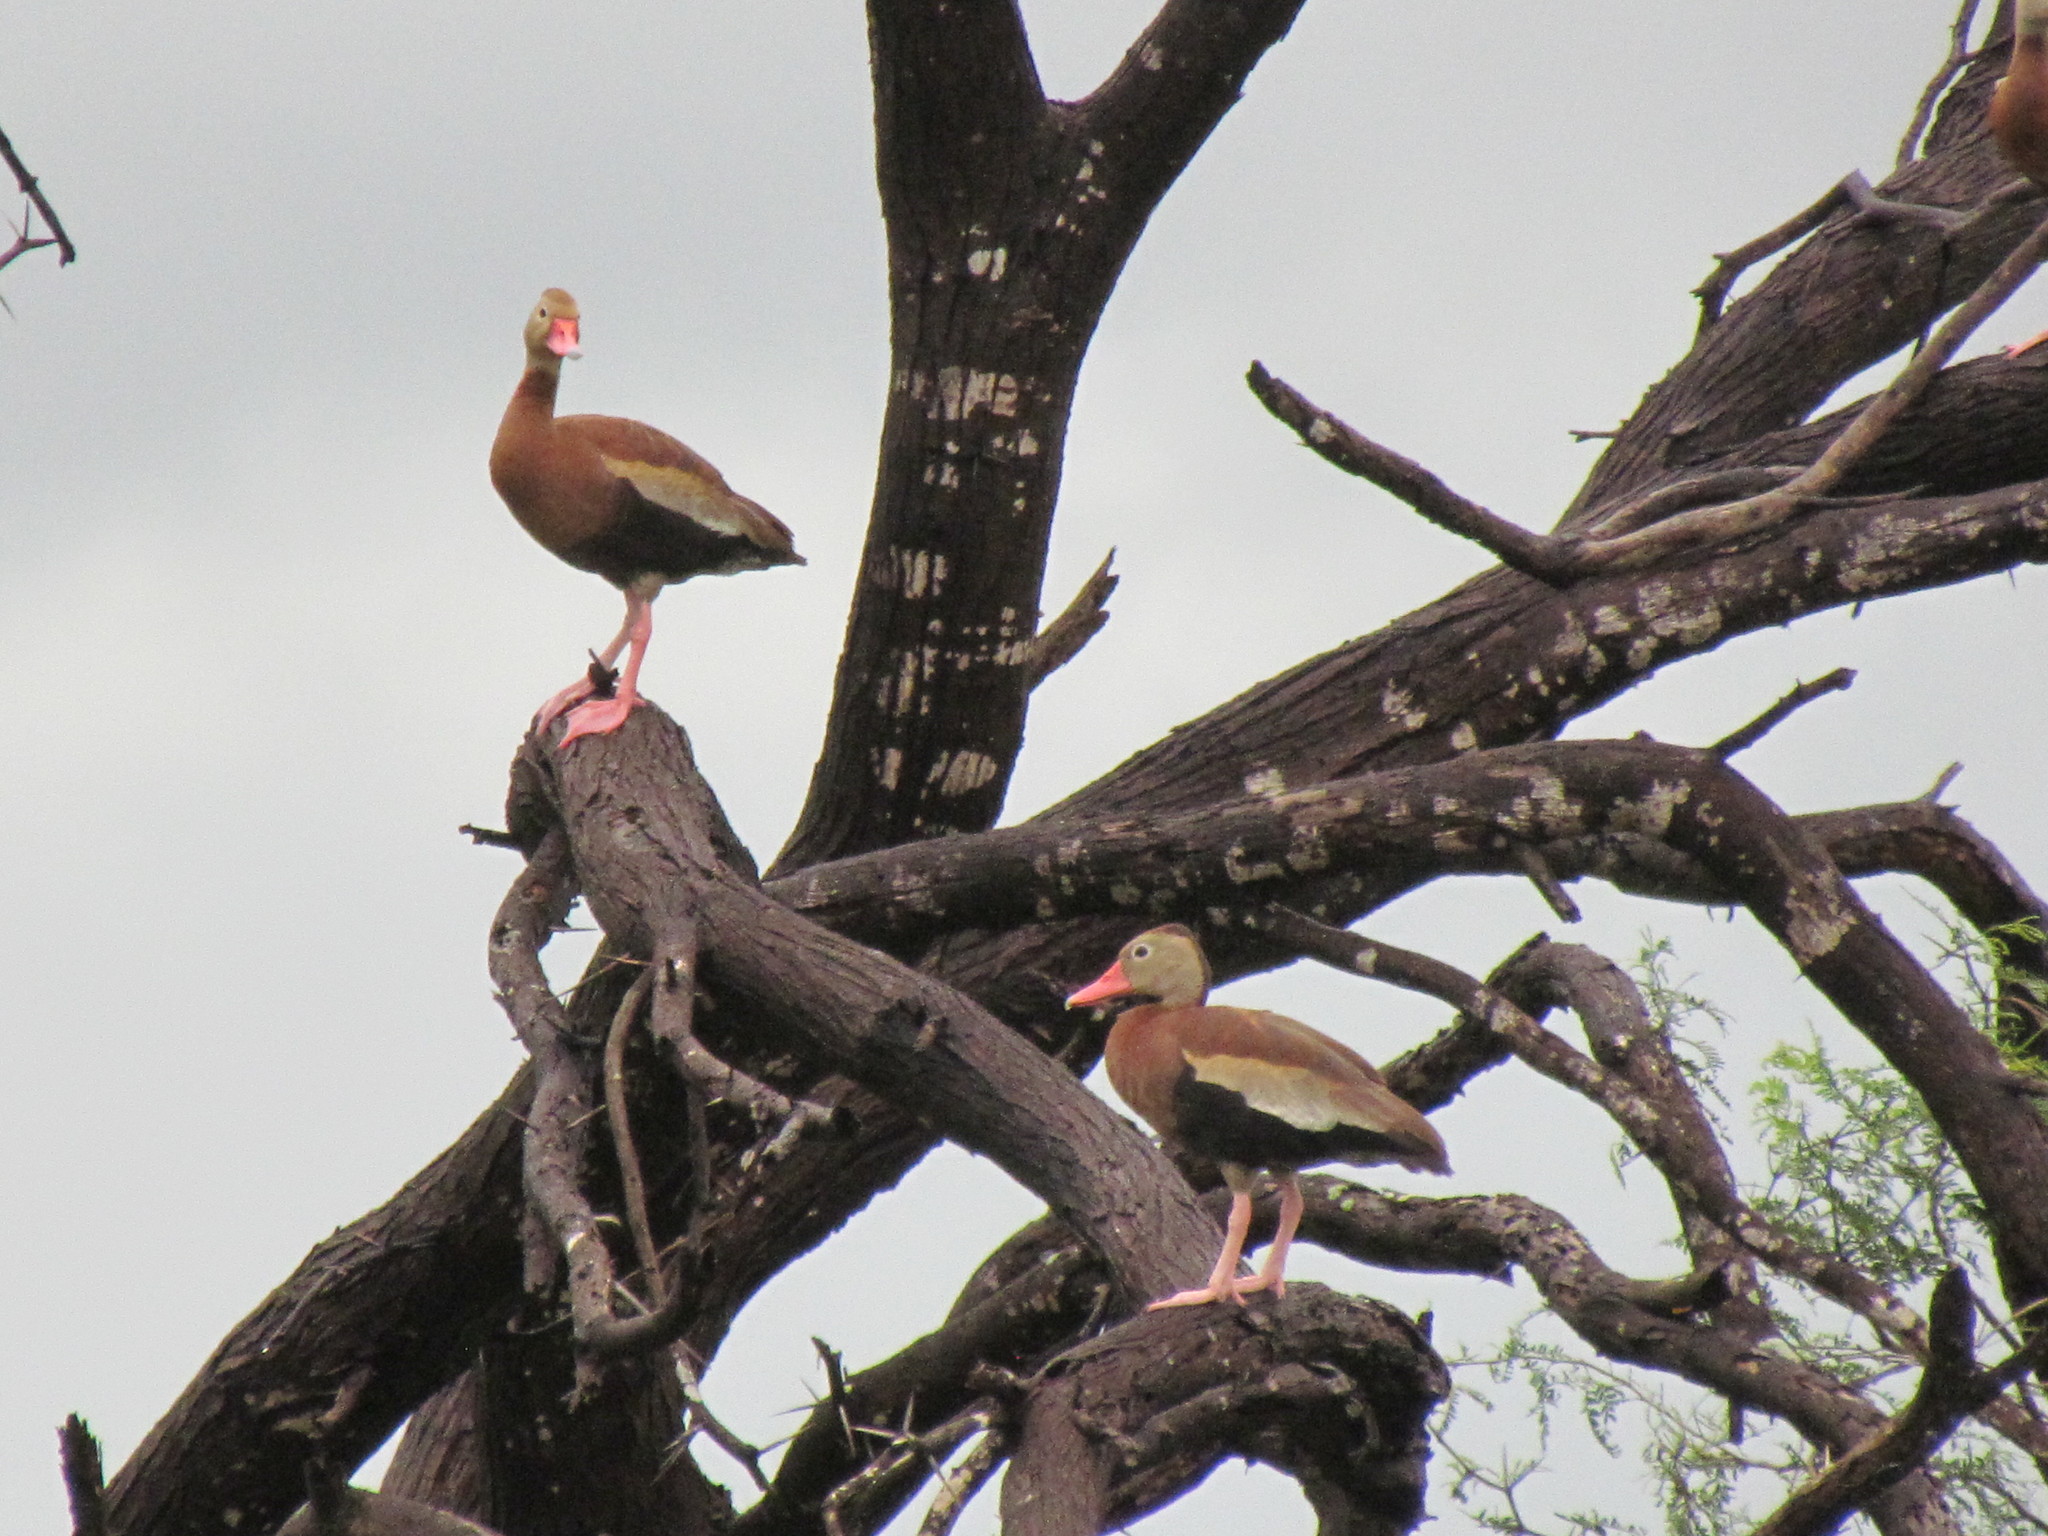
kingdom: Animalia
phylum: Chordata
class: Aves
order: Anseriformes
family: Anatidae
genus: Dendrocygna
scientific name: Dendrocygna autumnalis
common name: Black-bellied whistling duck
